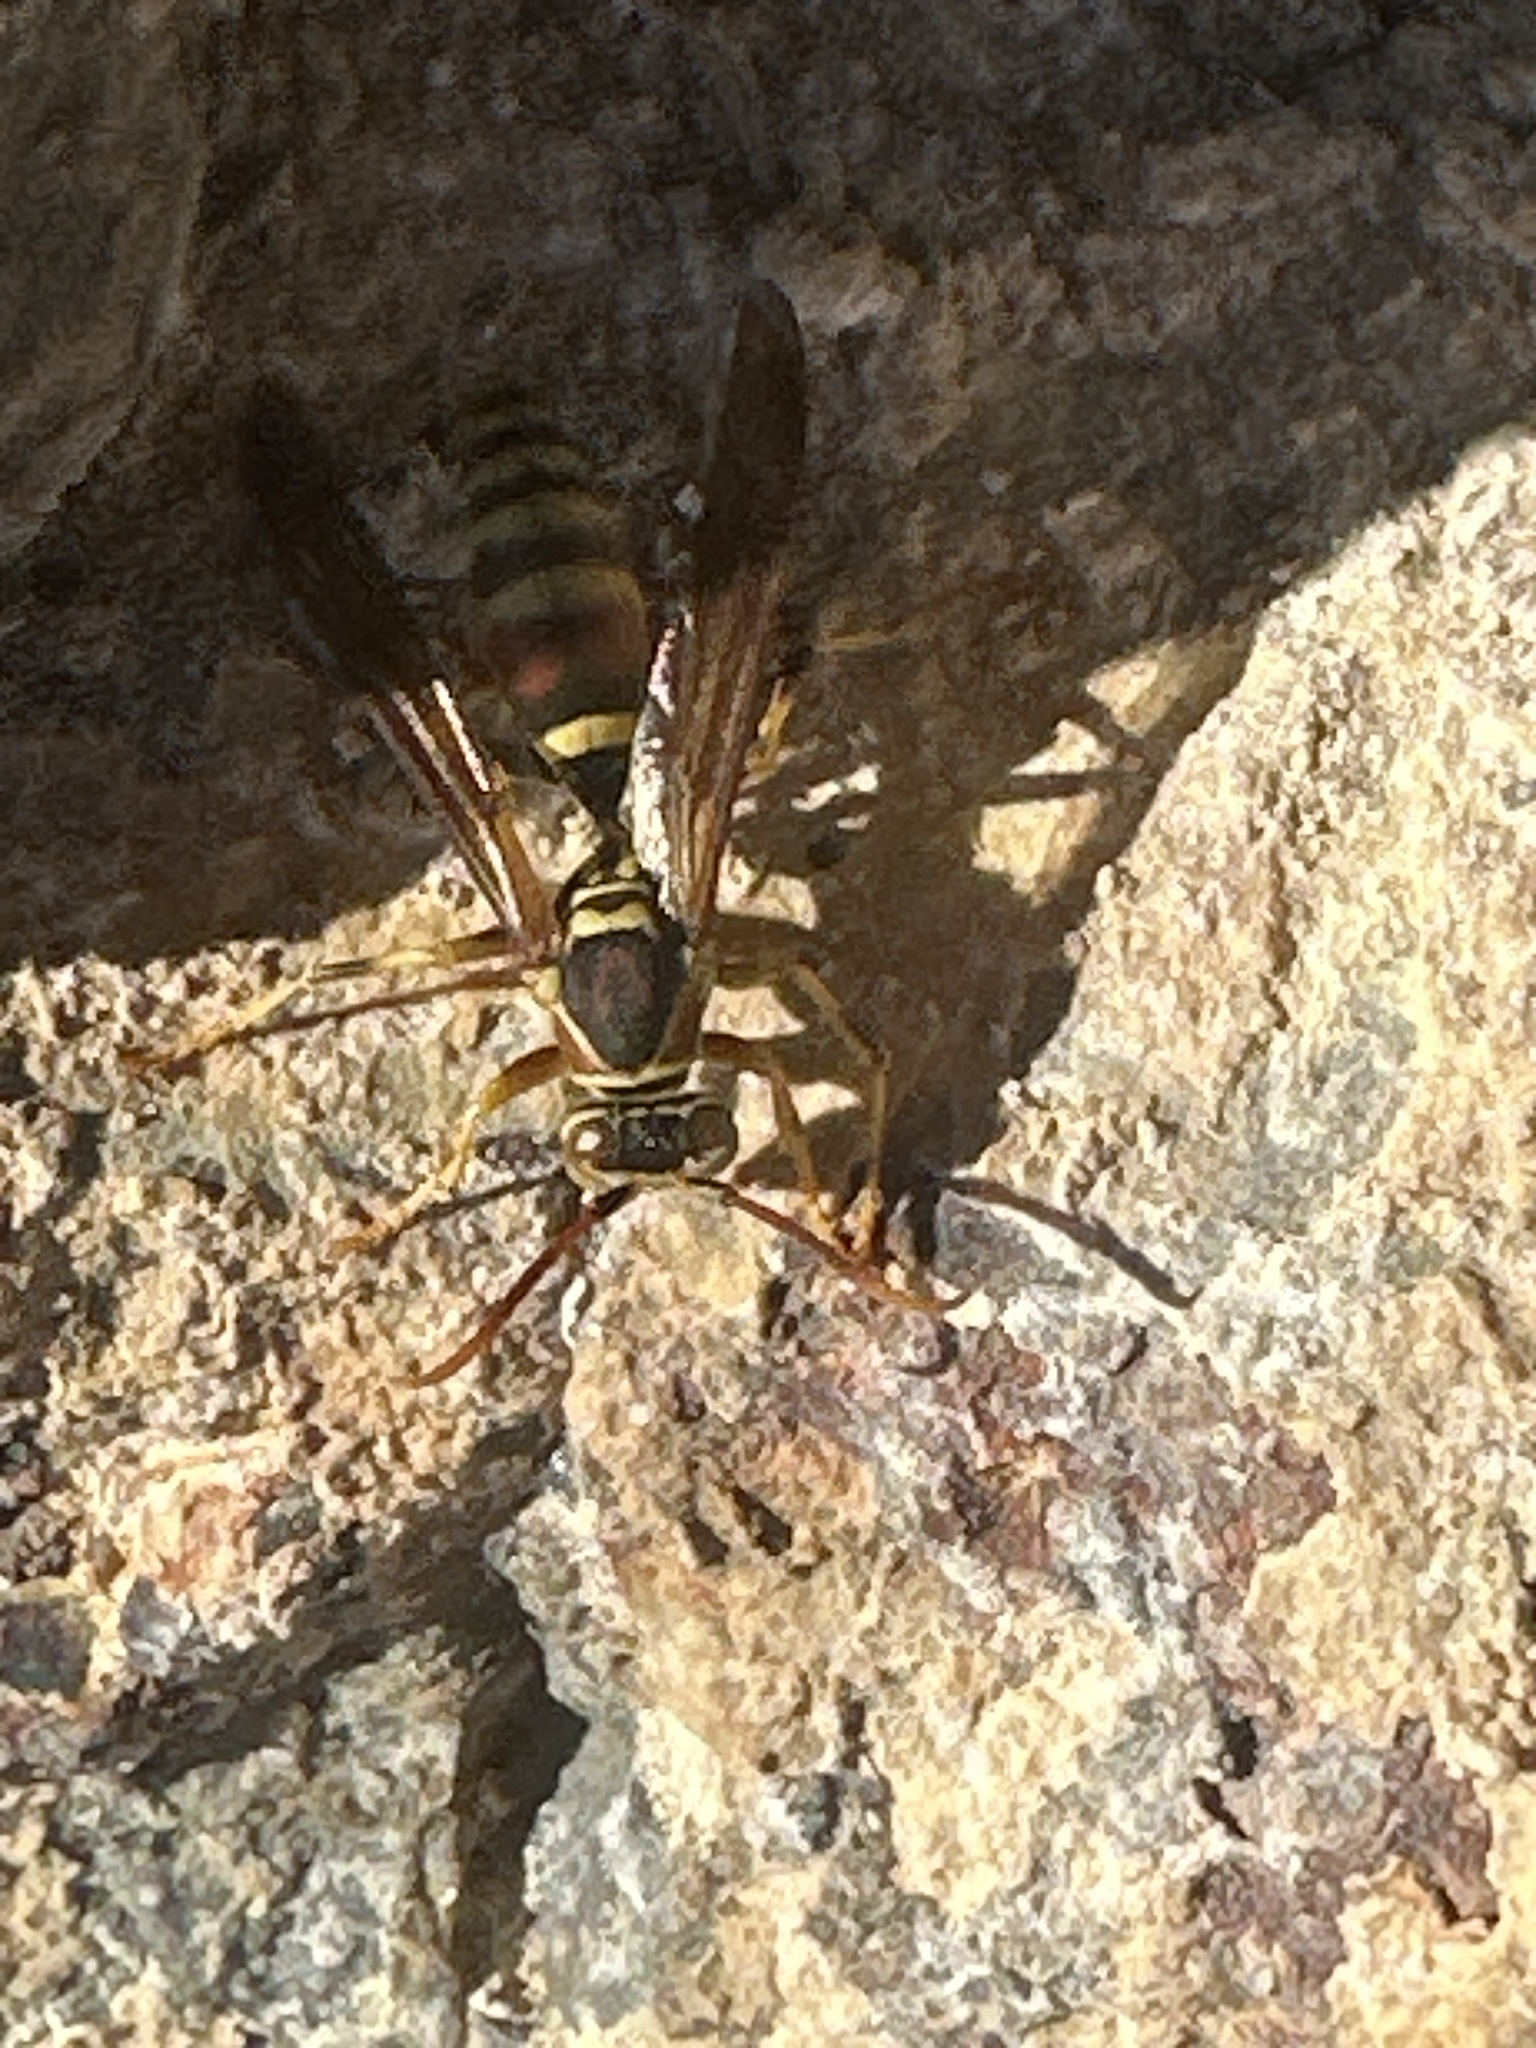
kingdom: Animalia
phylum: Arthropoda
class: Insecta
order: Hymenoptera
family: Eumenidae
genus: Polistes
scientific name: Polistes exclamans
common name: Paper wasp
